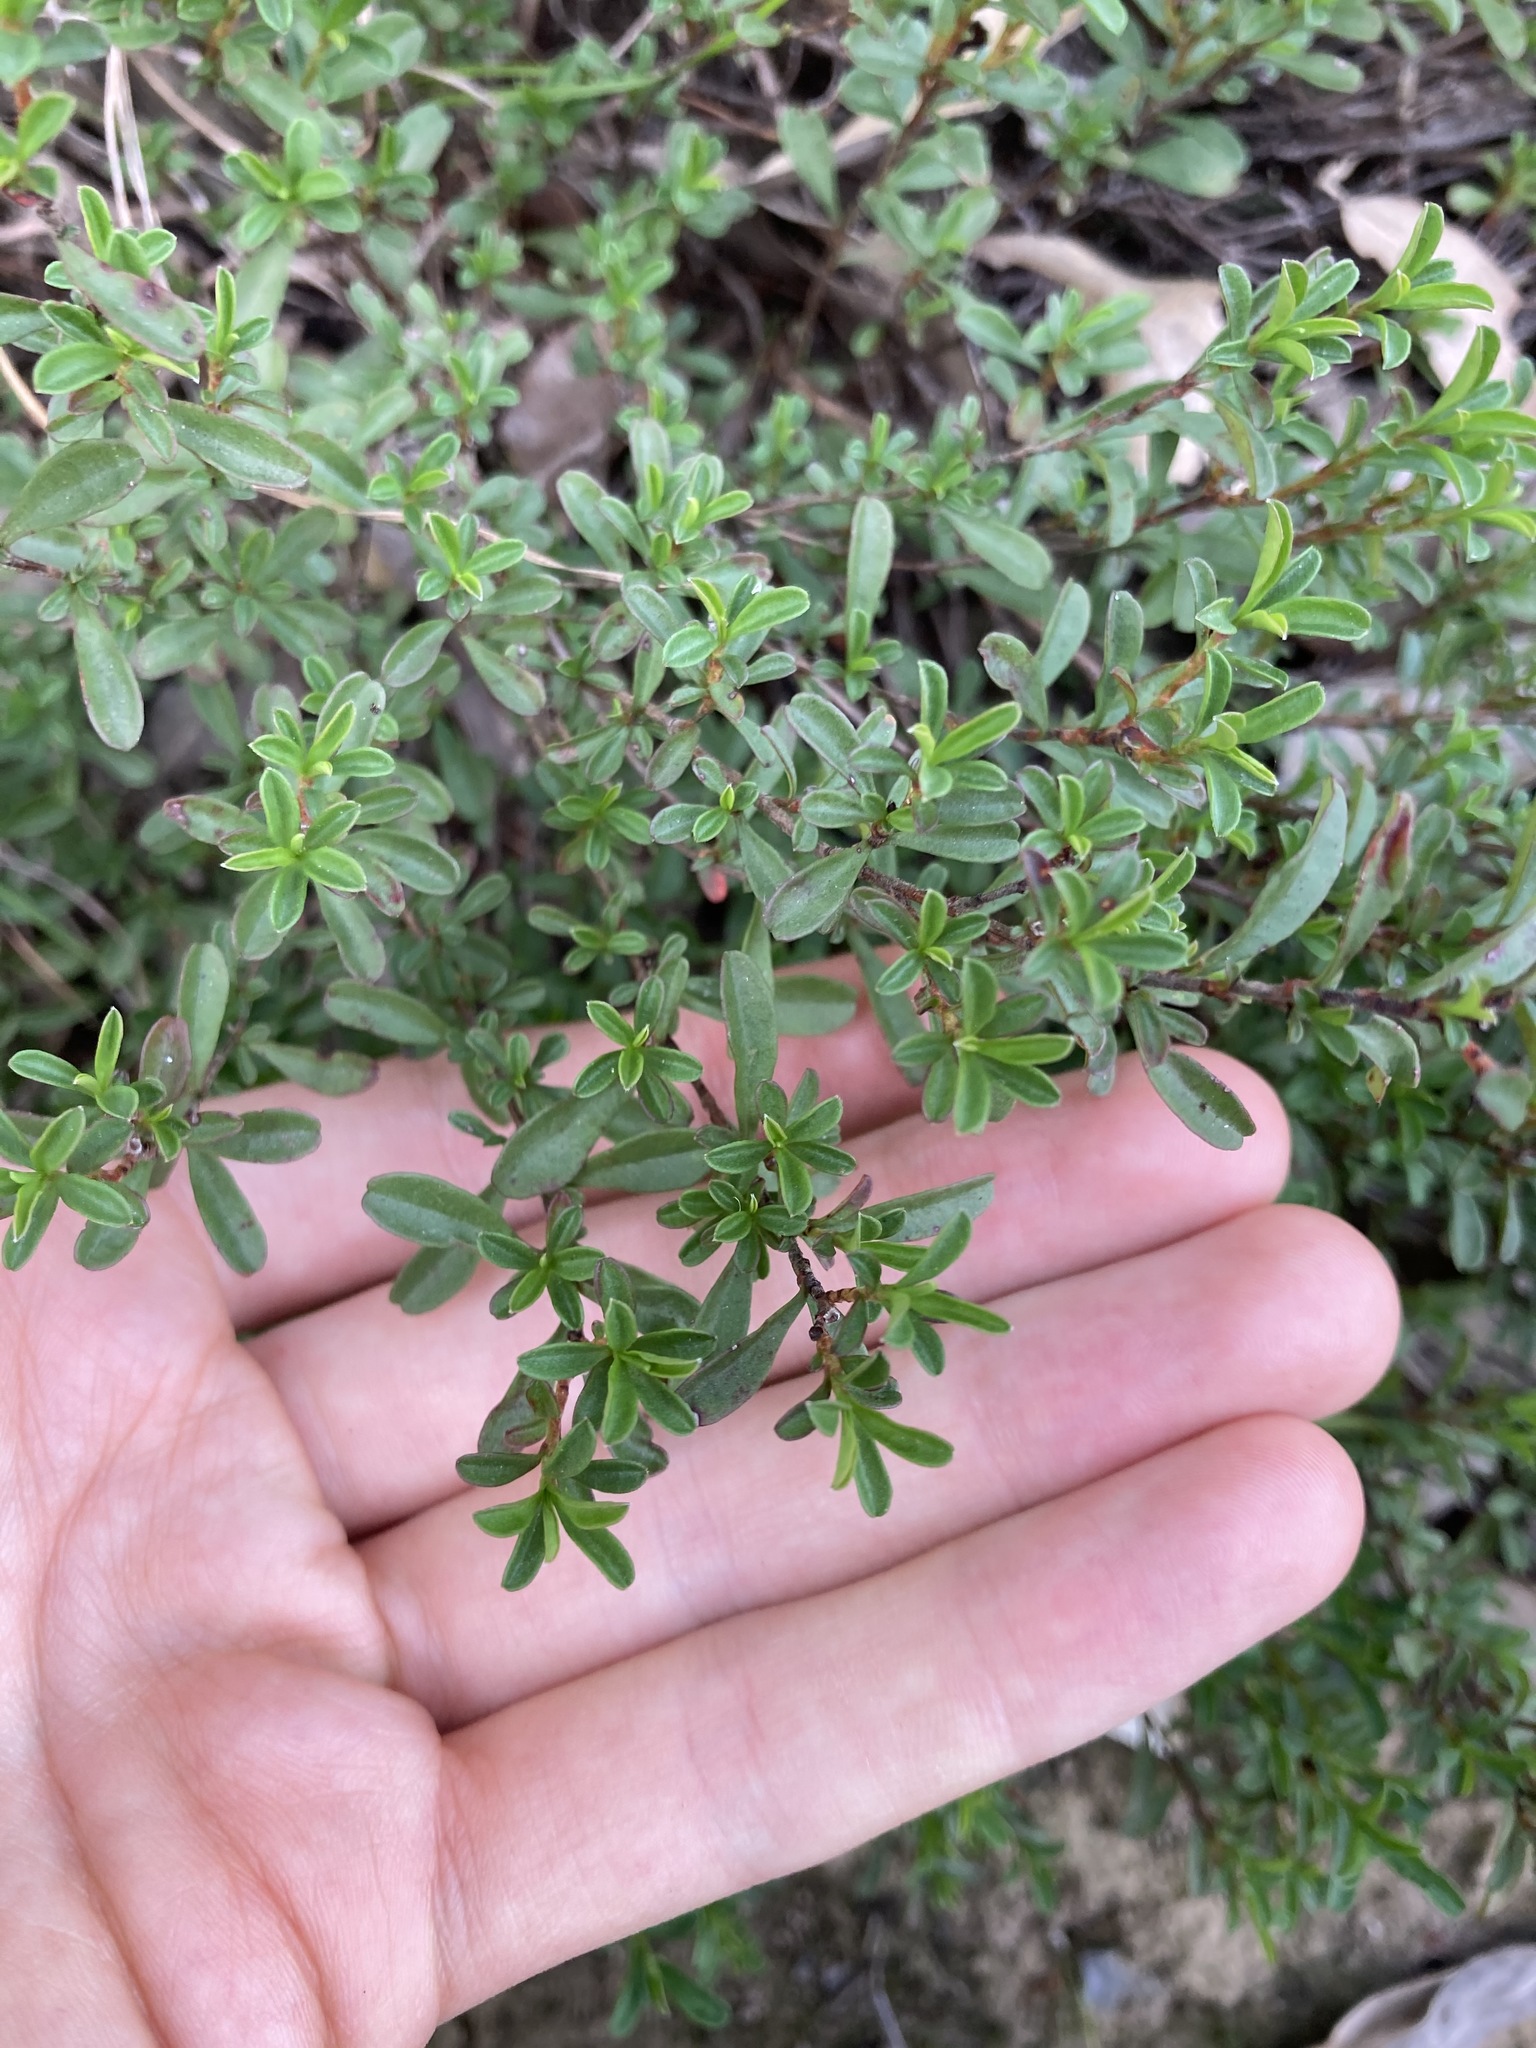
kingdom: Plantae
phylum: Tracheophyta
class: Magnoliopsida
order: Dilleniales
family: Dilleniaceae
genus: Hibbertia
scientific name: Hibbertia diffusa
